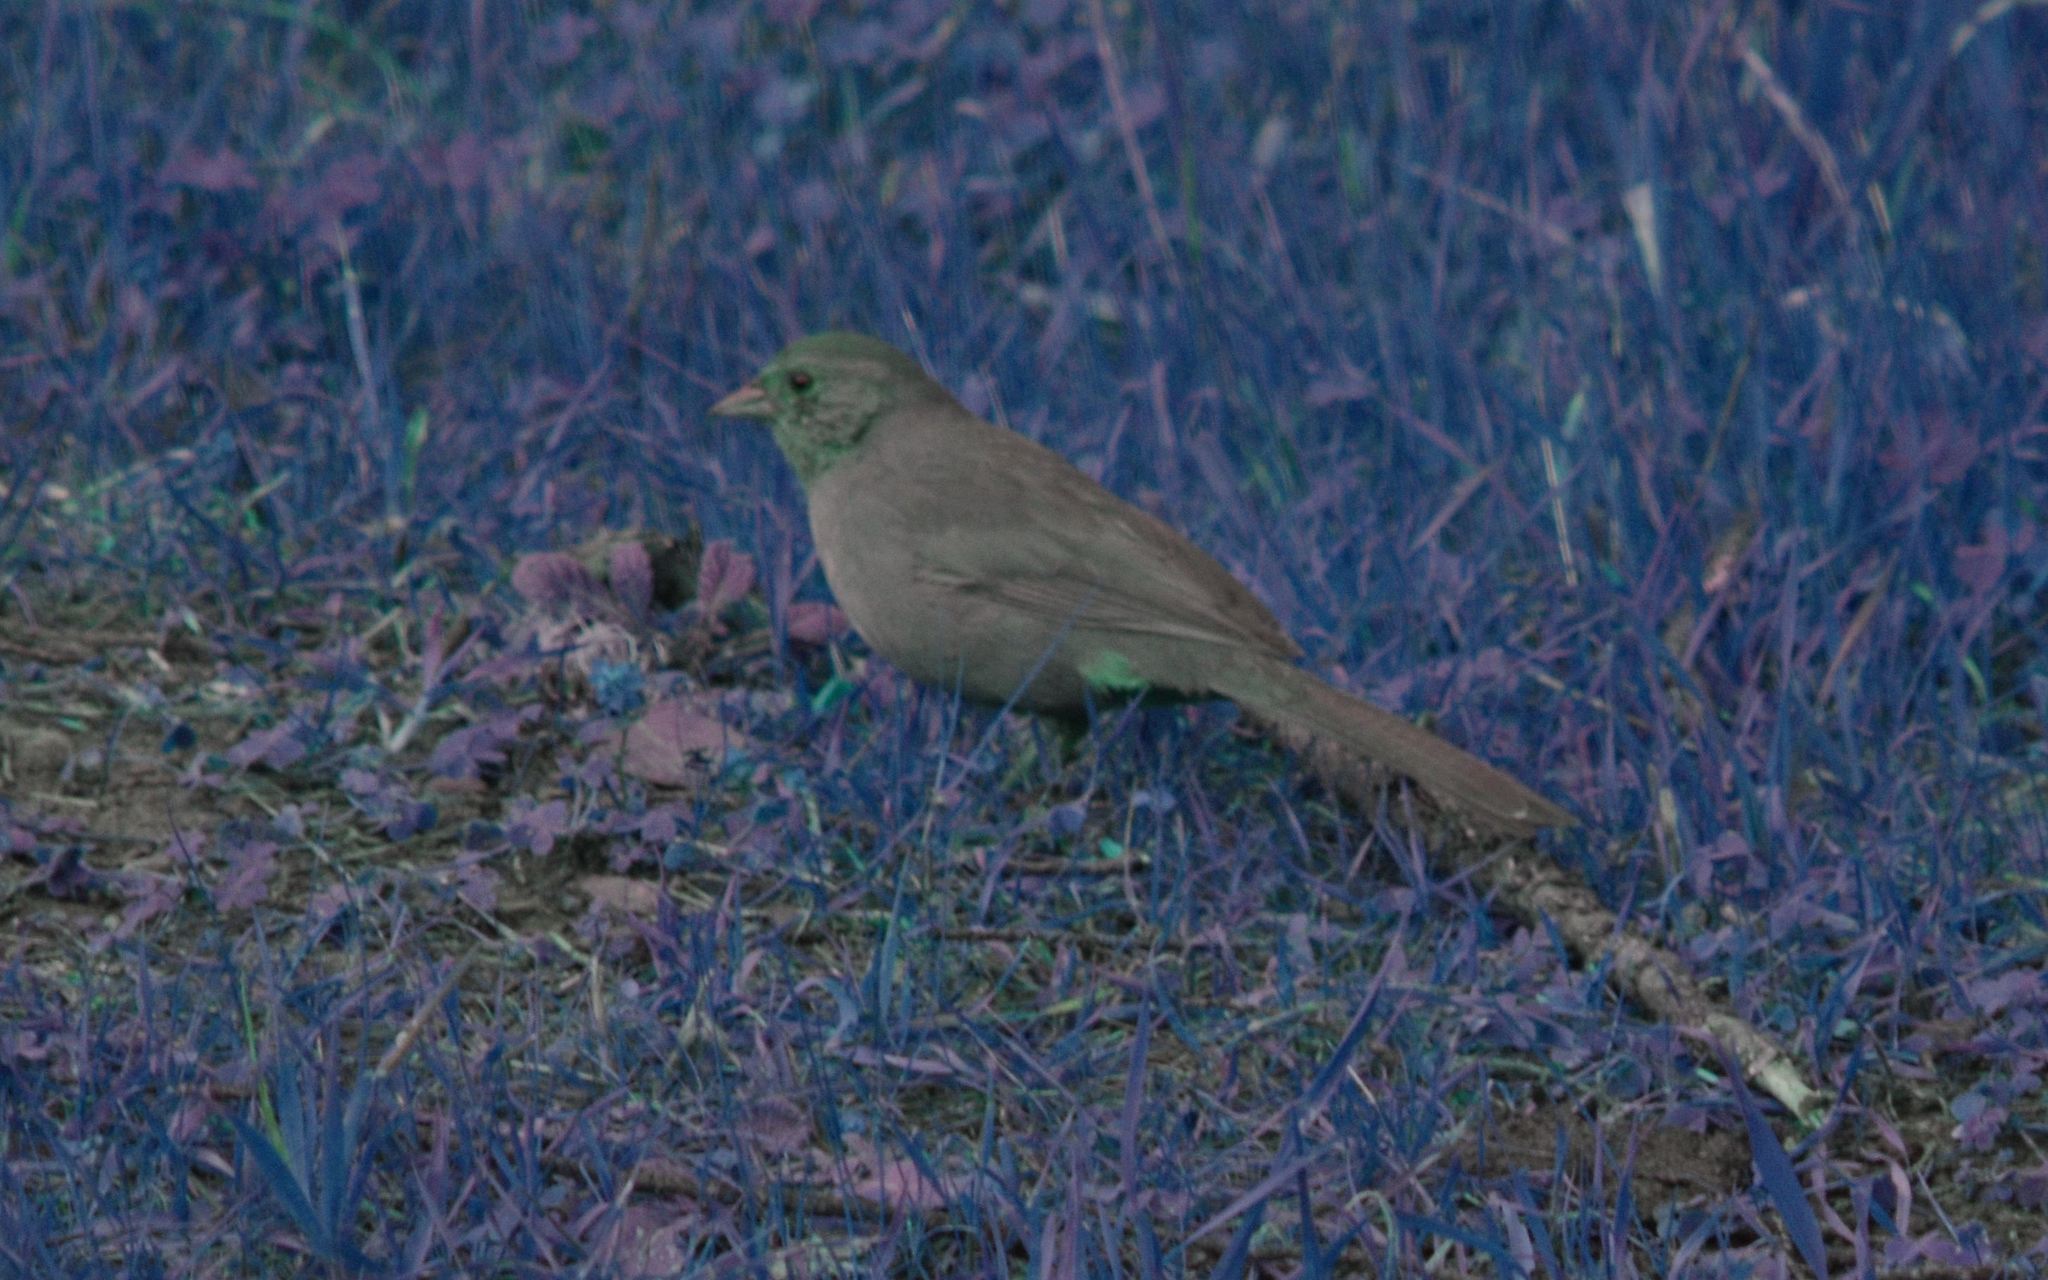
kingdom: Animalia
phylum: Chordata
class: Aves
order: Passeriformes
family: Passerellidae
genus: Melozone
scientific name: Melozone crissalis
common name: California towhee
